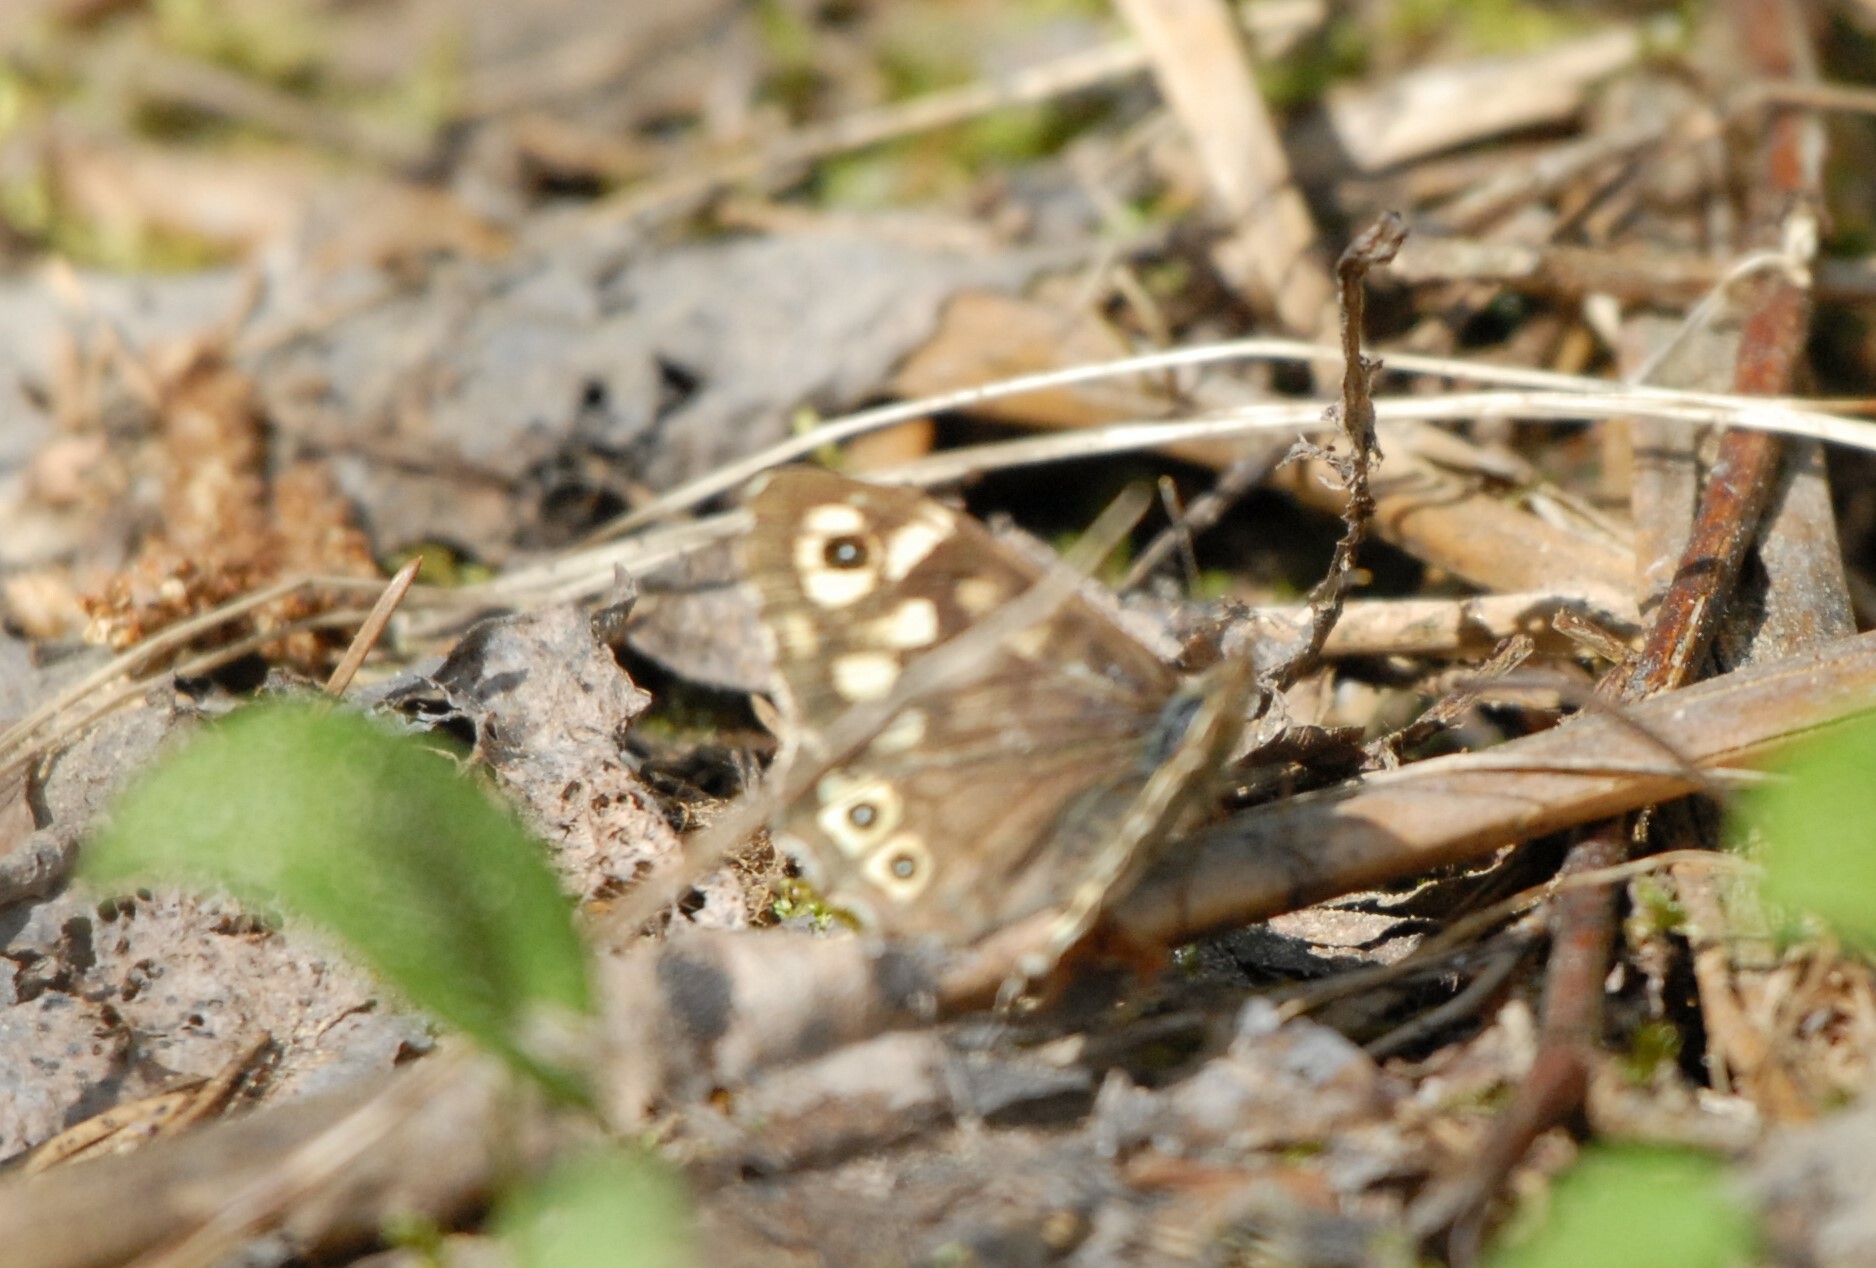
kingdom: Animalia
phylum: Arthropoda
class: Insecta
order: Lepidoptera
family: Nymphalidae
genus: Pararge
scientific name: Pararge aegeria
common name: Speckled wood
